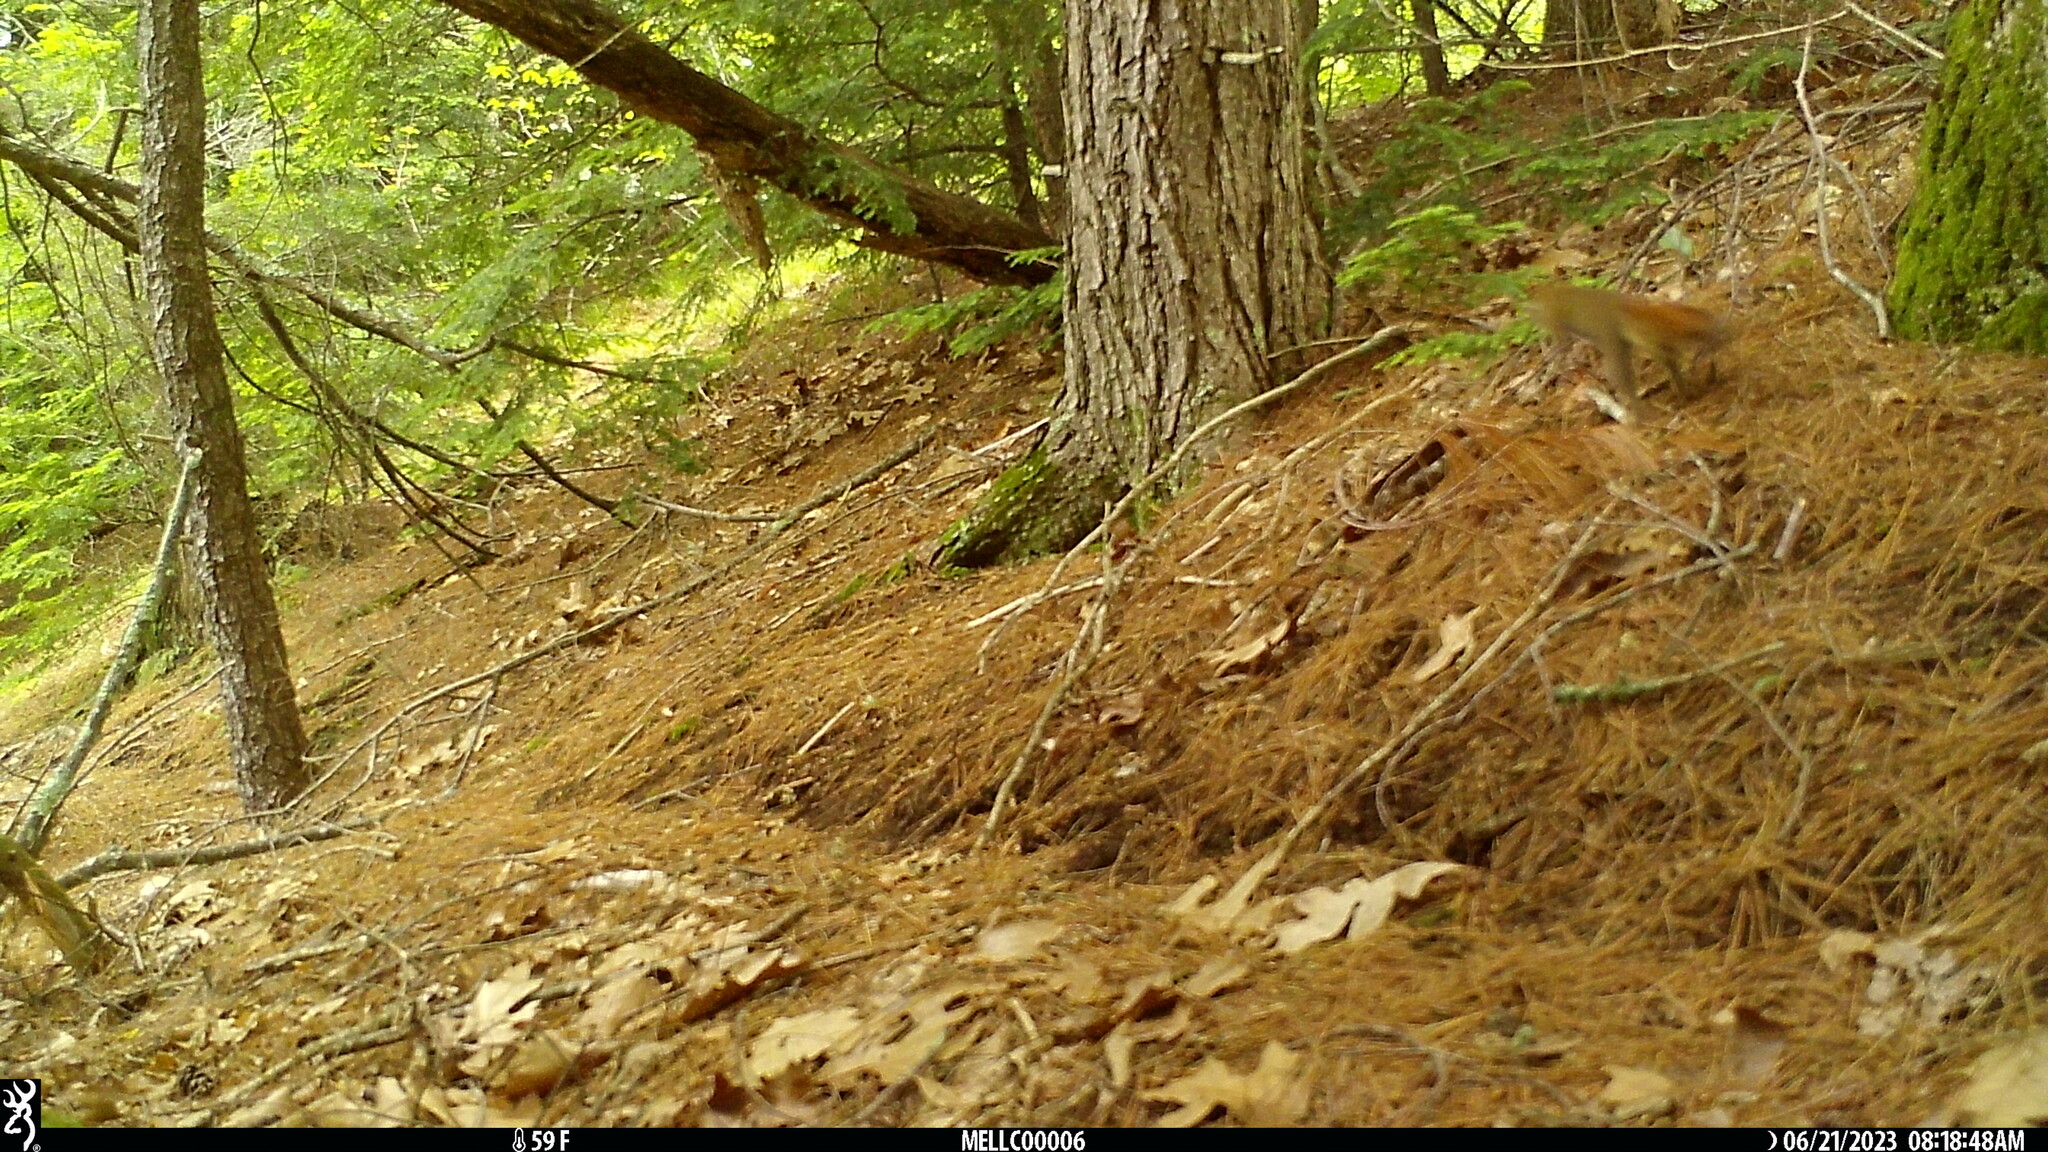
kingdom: Animalia
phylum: Chordata
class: Mammalia
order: Rodentia
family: Sciuridae
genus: Tamiasciurus
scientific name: Tamiasciurus hudsonicus
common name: Red squirrel
